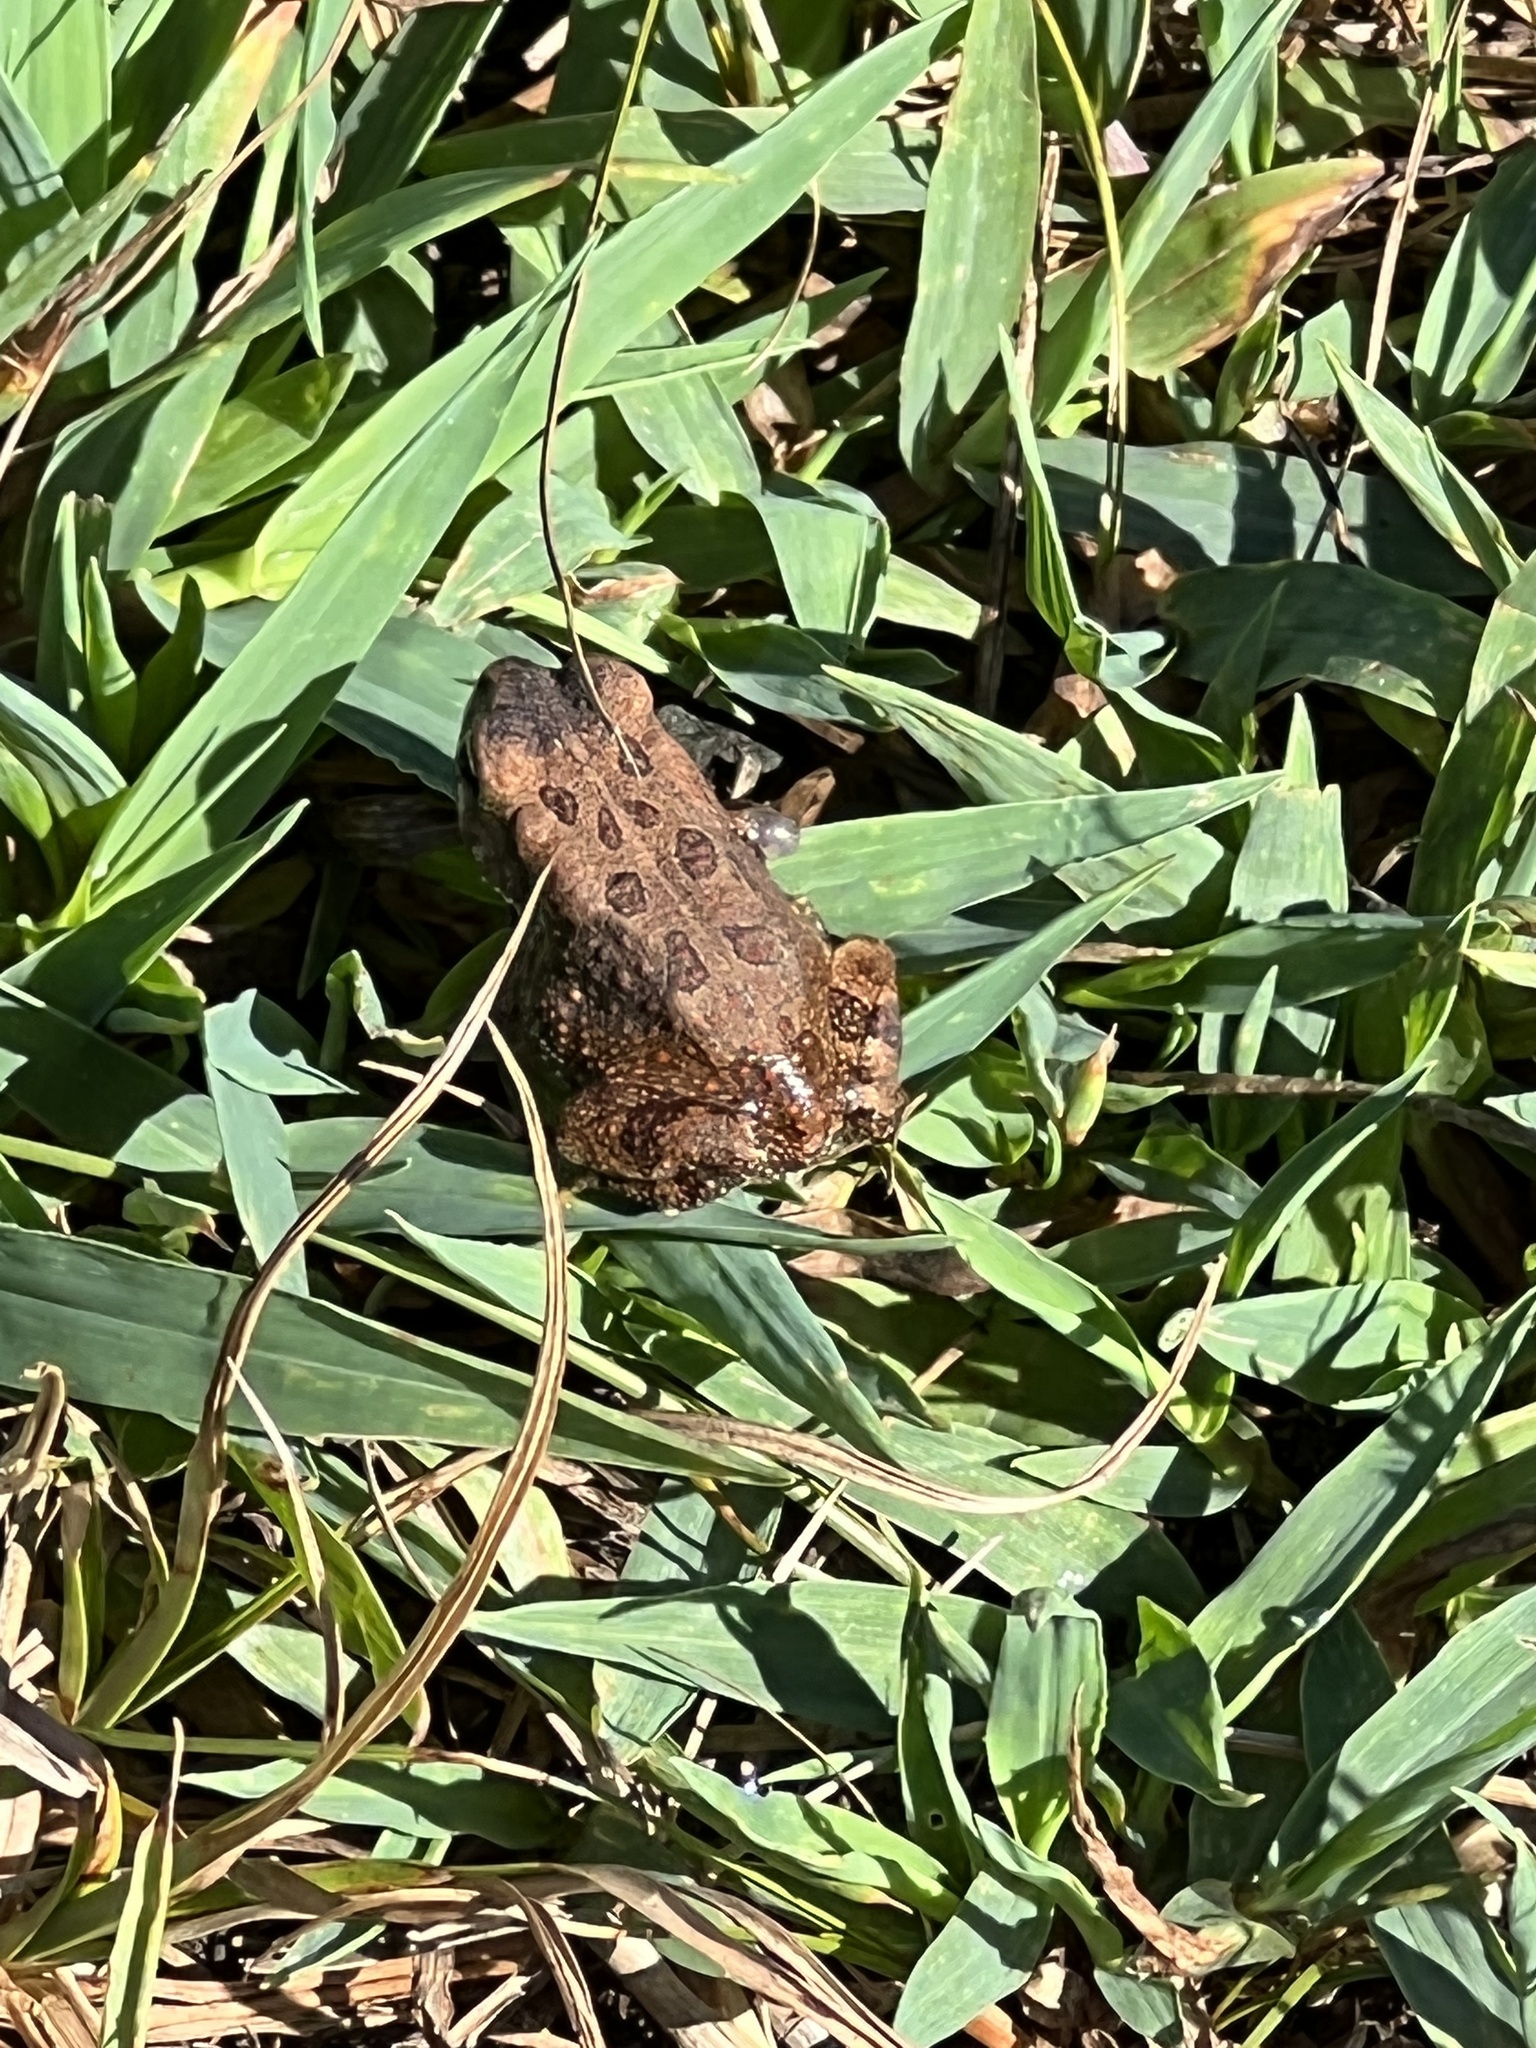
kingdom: Animalia
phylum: Chordata
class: Amphibia
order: Anura
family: Bufonidae
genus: Anaxyrus
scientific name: Anaxyrus fowleri
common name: Fowler's toad
